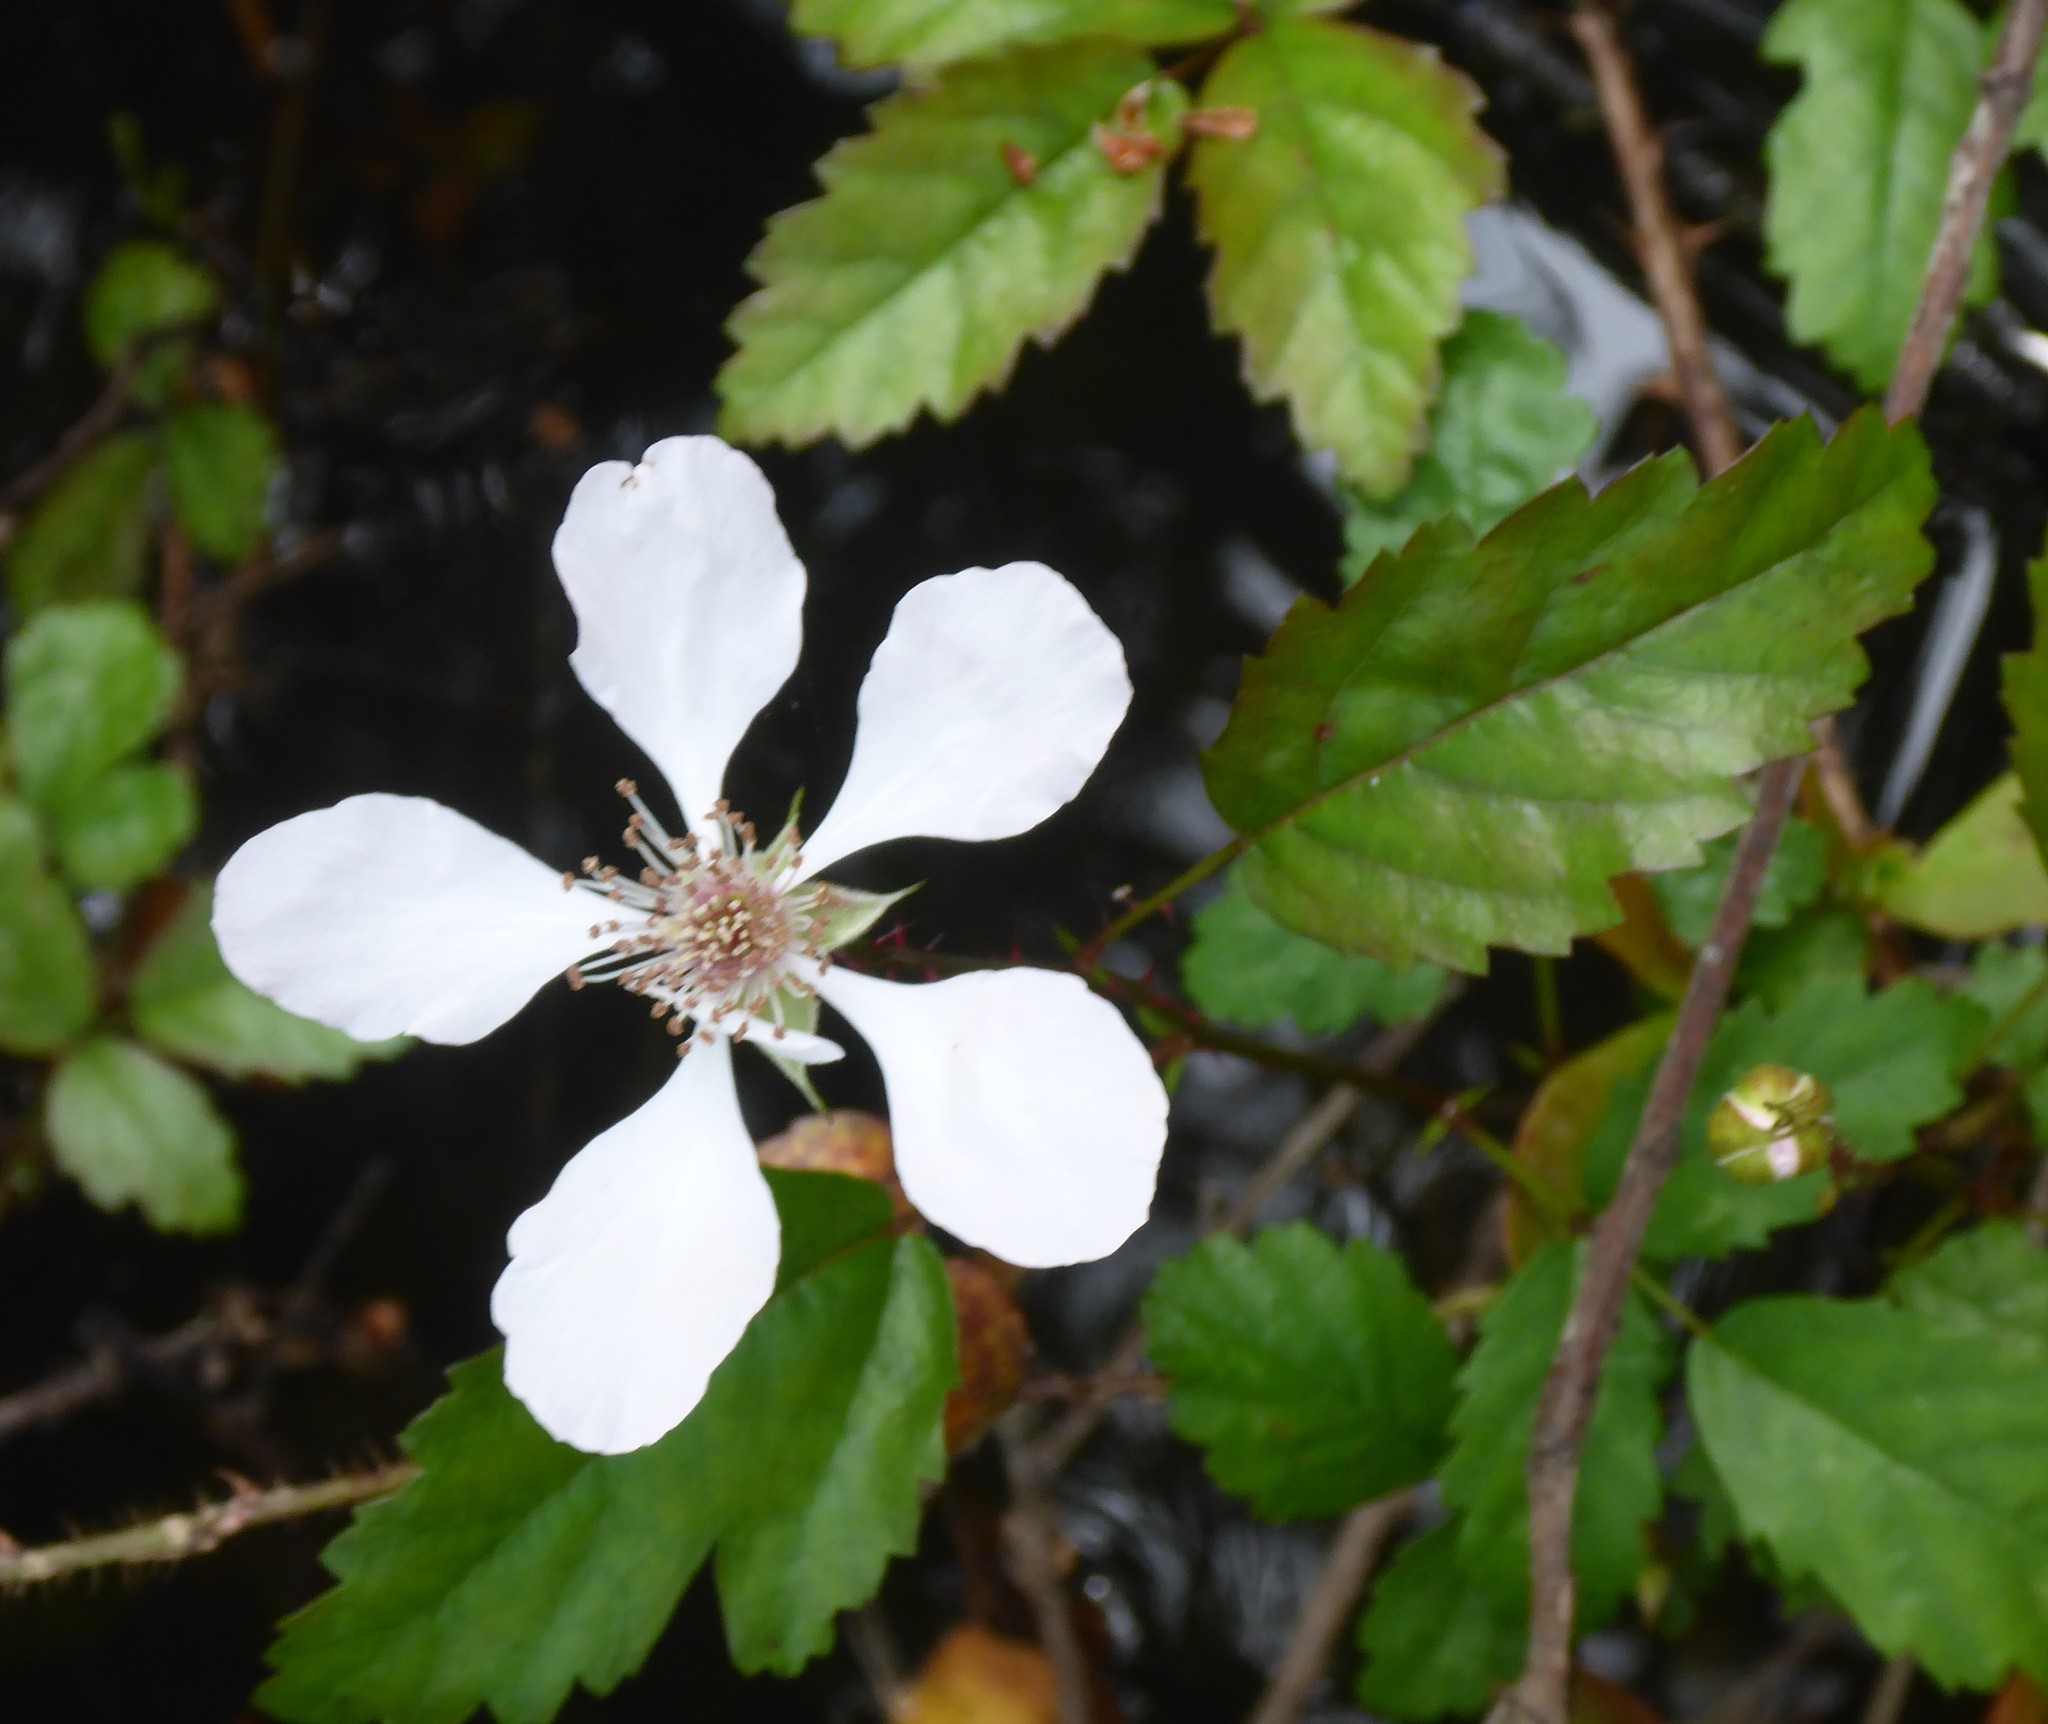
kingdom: Plantae
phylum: Tracheophyta
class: Magnoliopsida
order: Rosales
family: Rosaceae
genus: Rubus
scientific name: Rubus trivialis
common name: Southern dewberry
